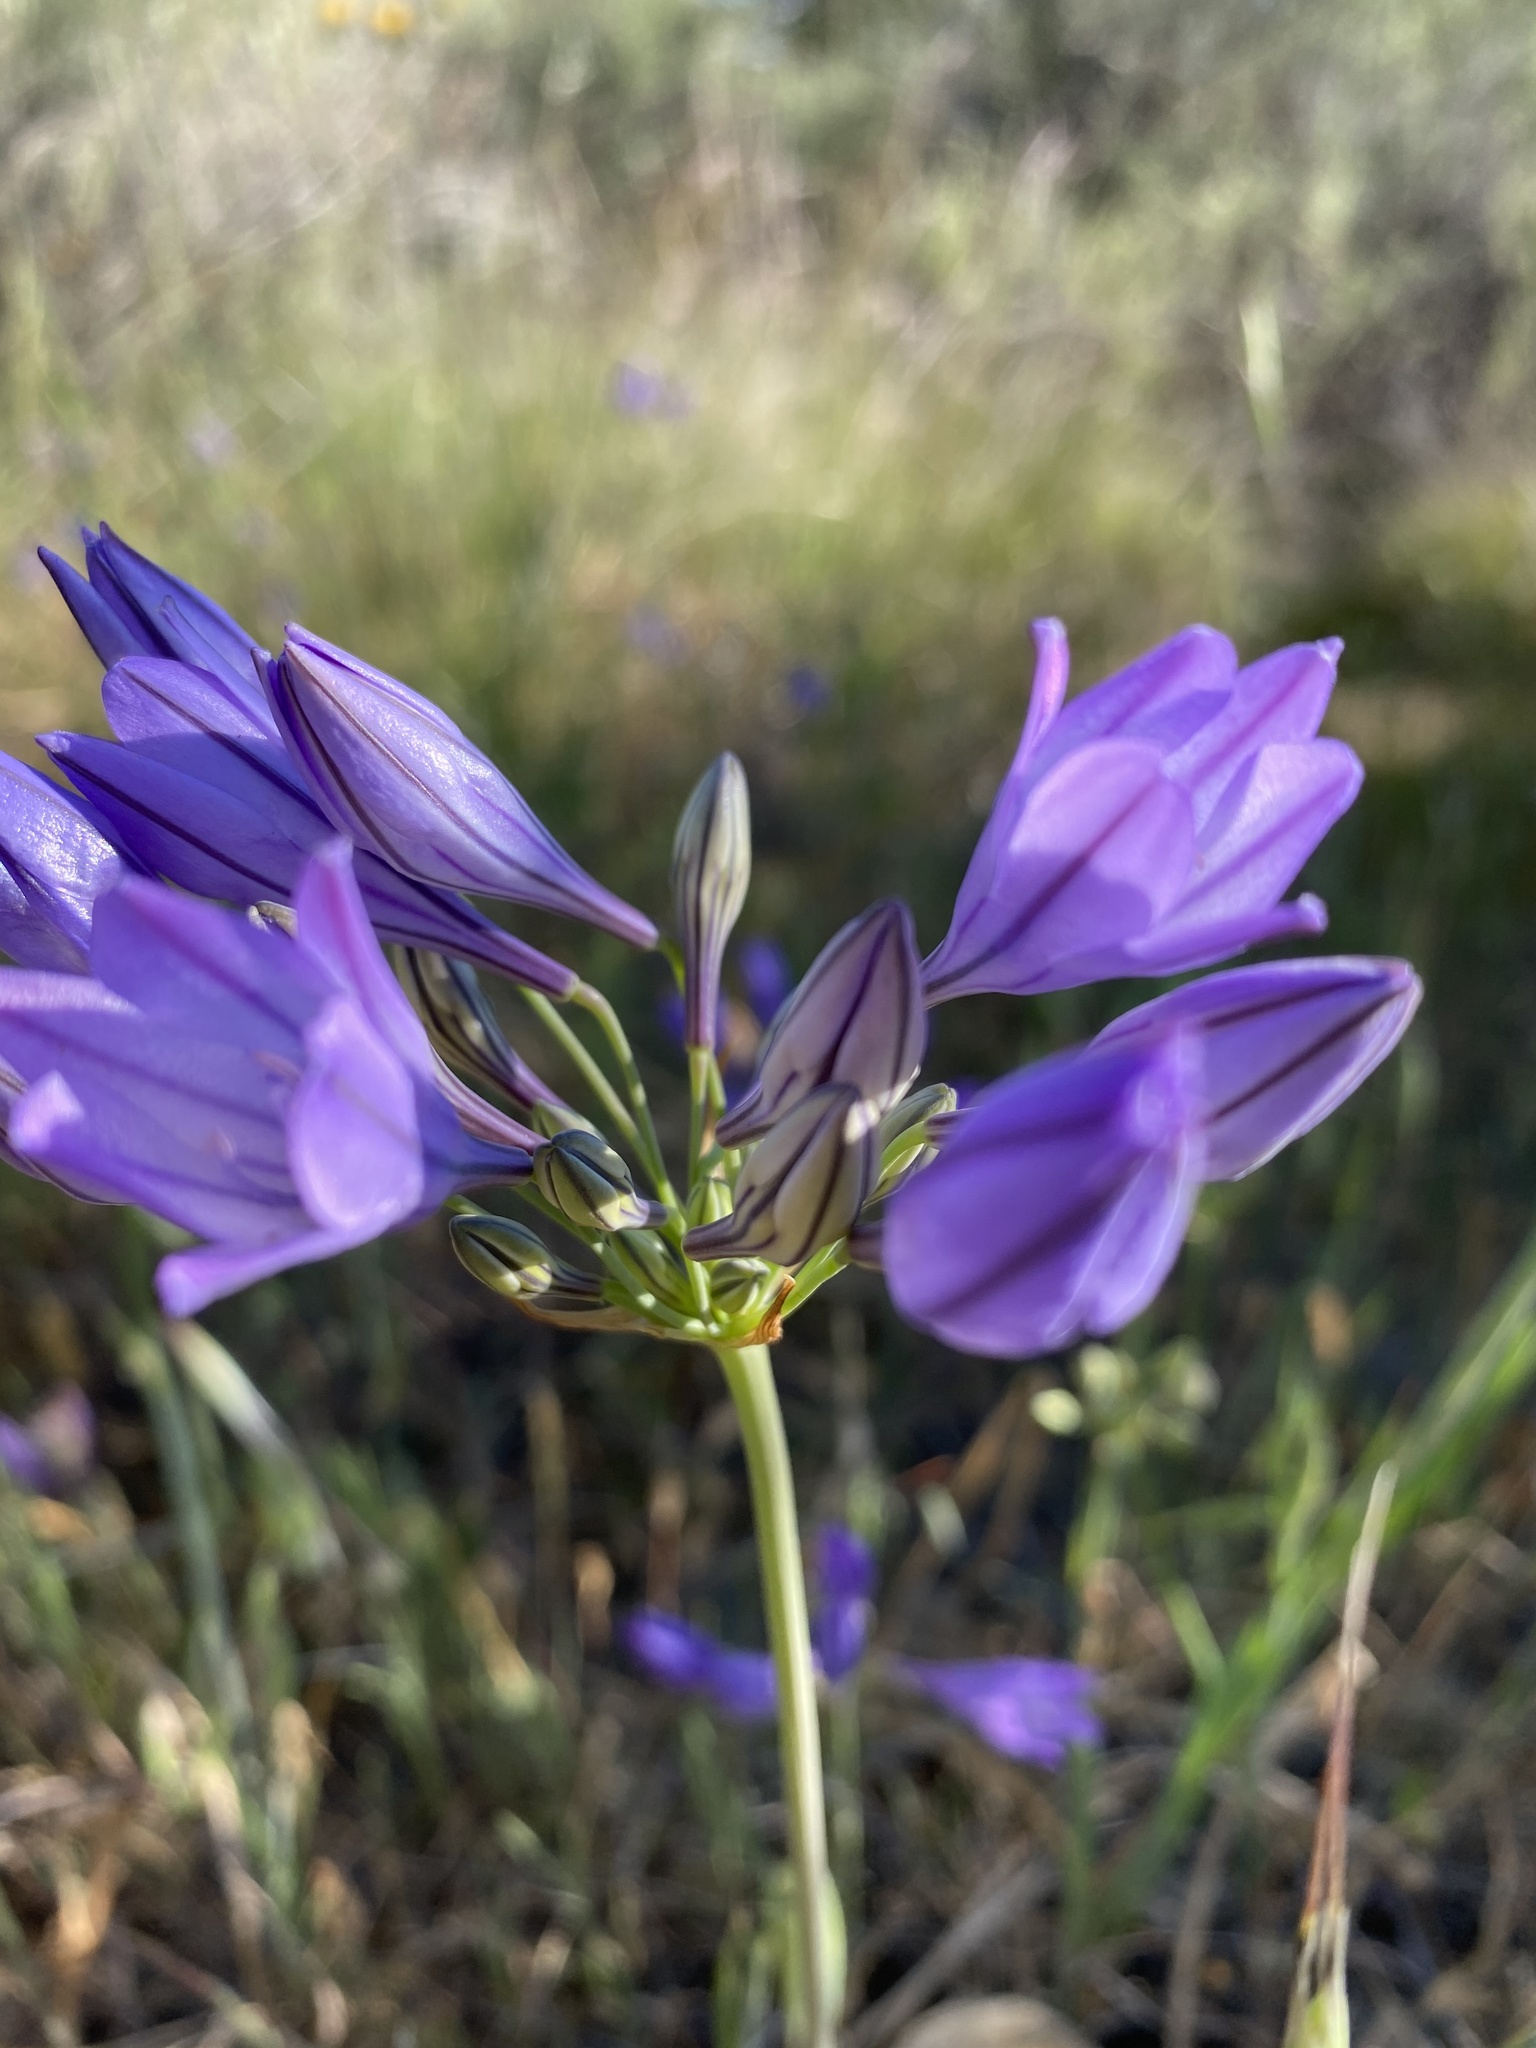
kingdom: Plantae
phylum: Tracheophyta
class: Liliopsida
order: Asparagales
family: Asparagaceae
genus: Triteleia
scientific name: Triteleia laxa
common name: Triplet-lily
